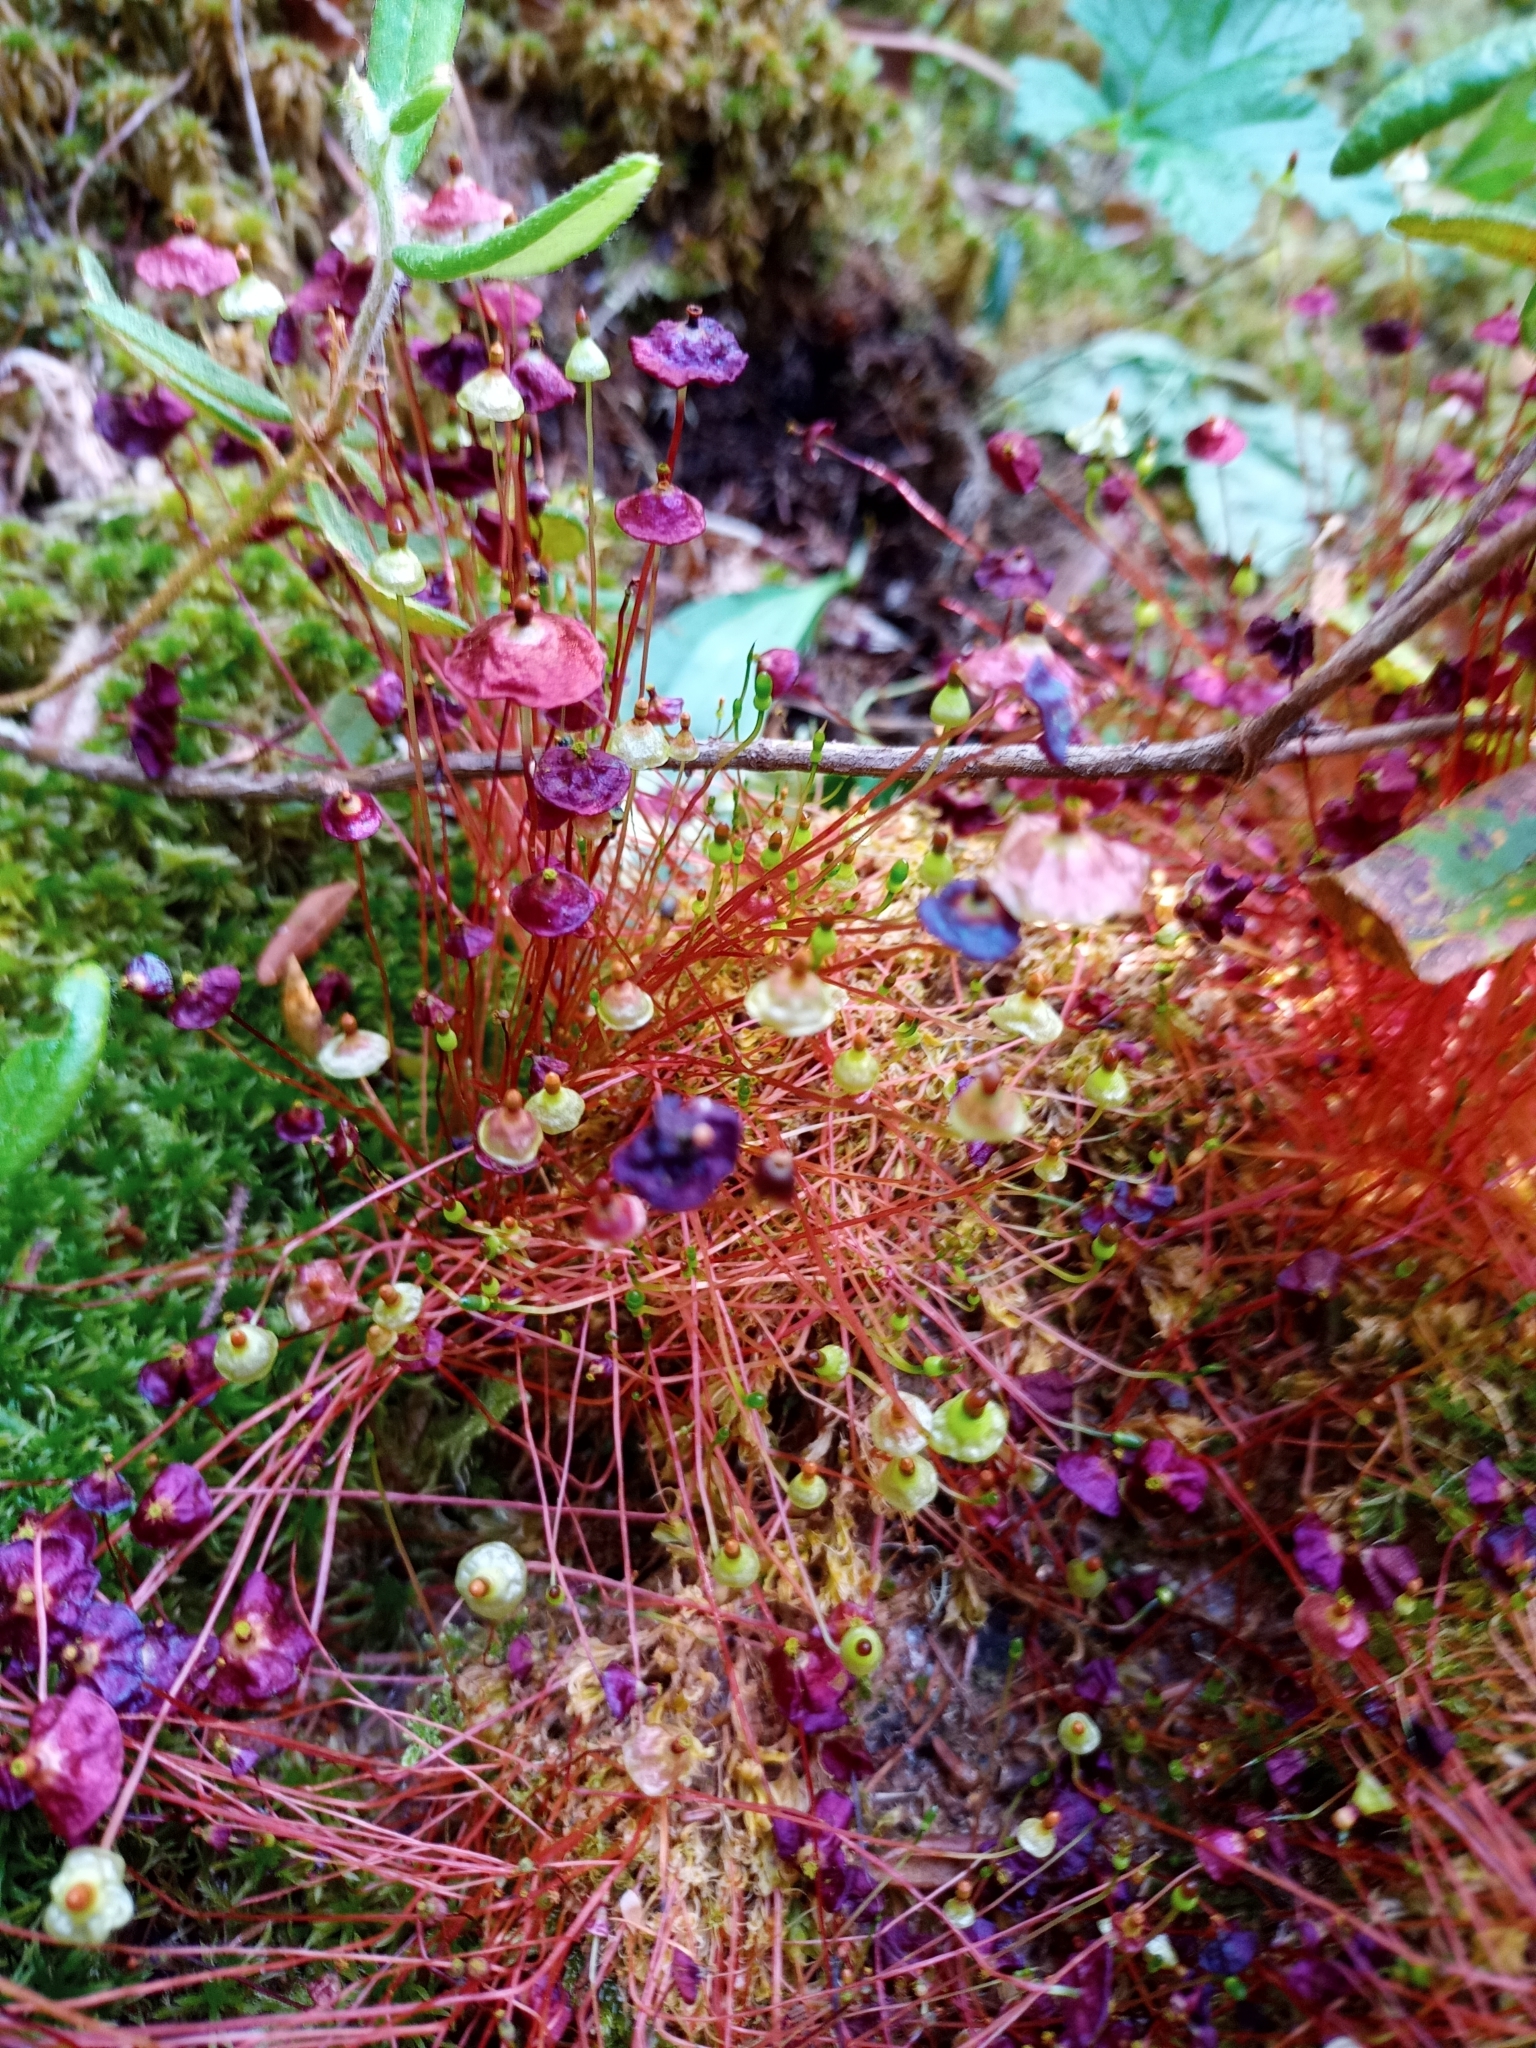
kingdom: Plantae
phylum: Bryophyta
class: Bryopsida
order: Splachnales
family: Splachnaceae
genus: Splachnum
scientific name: Splachnum rubrum
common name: Red dung moss
